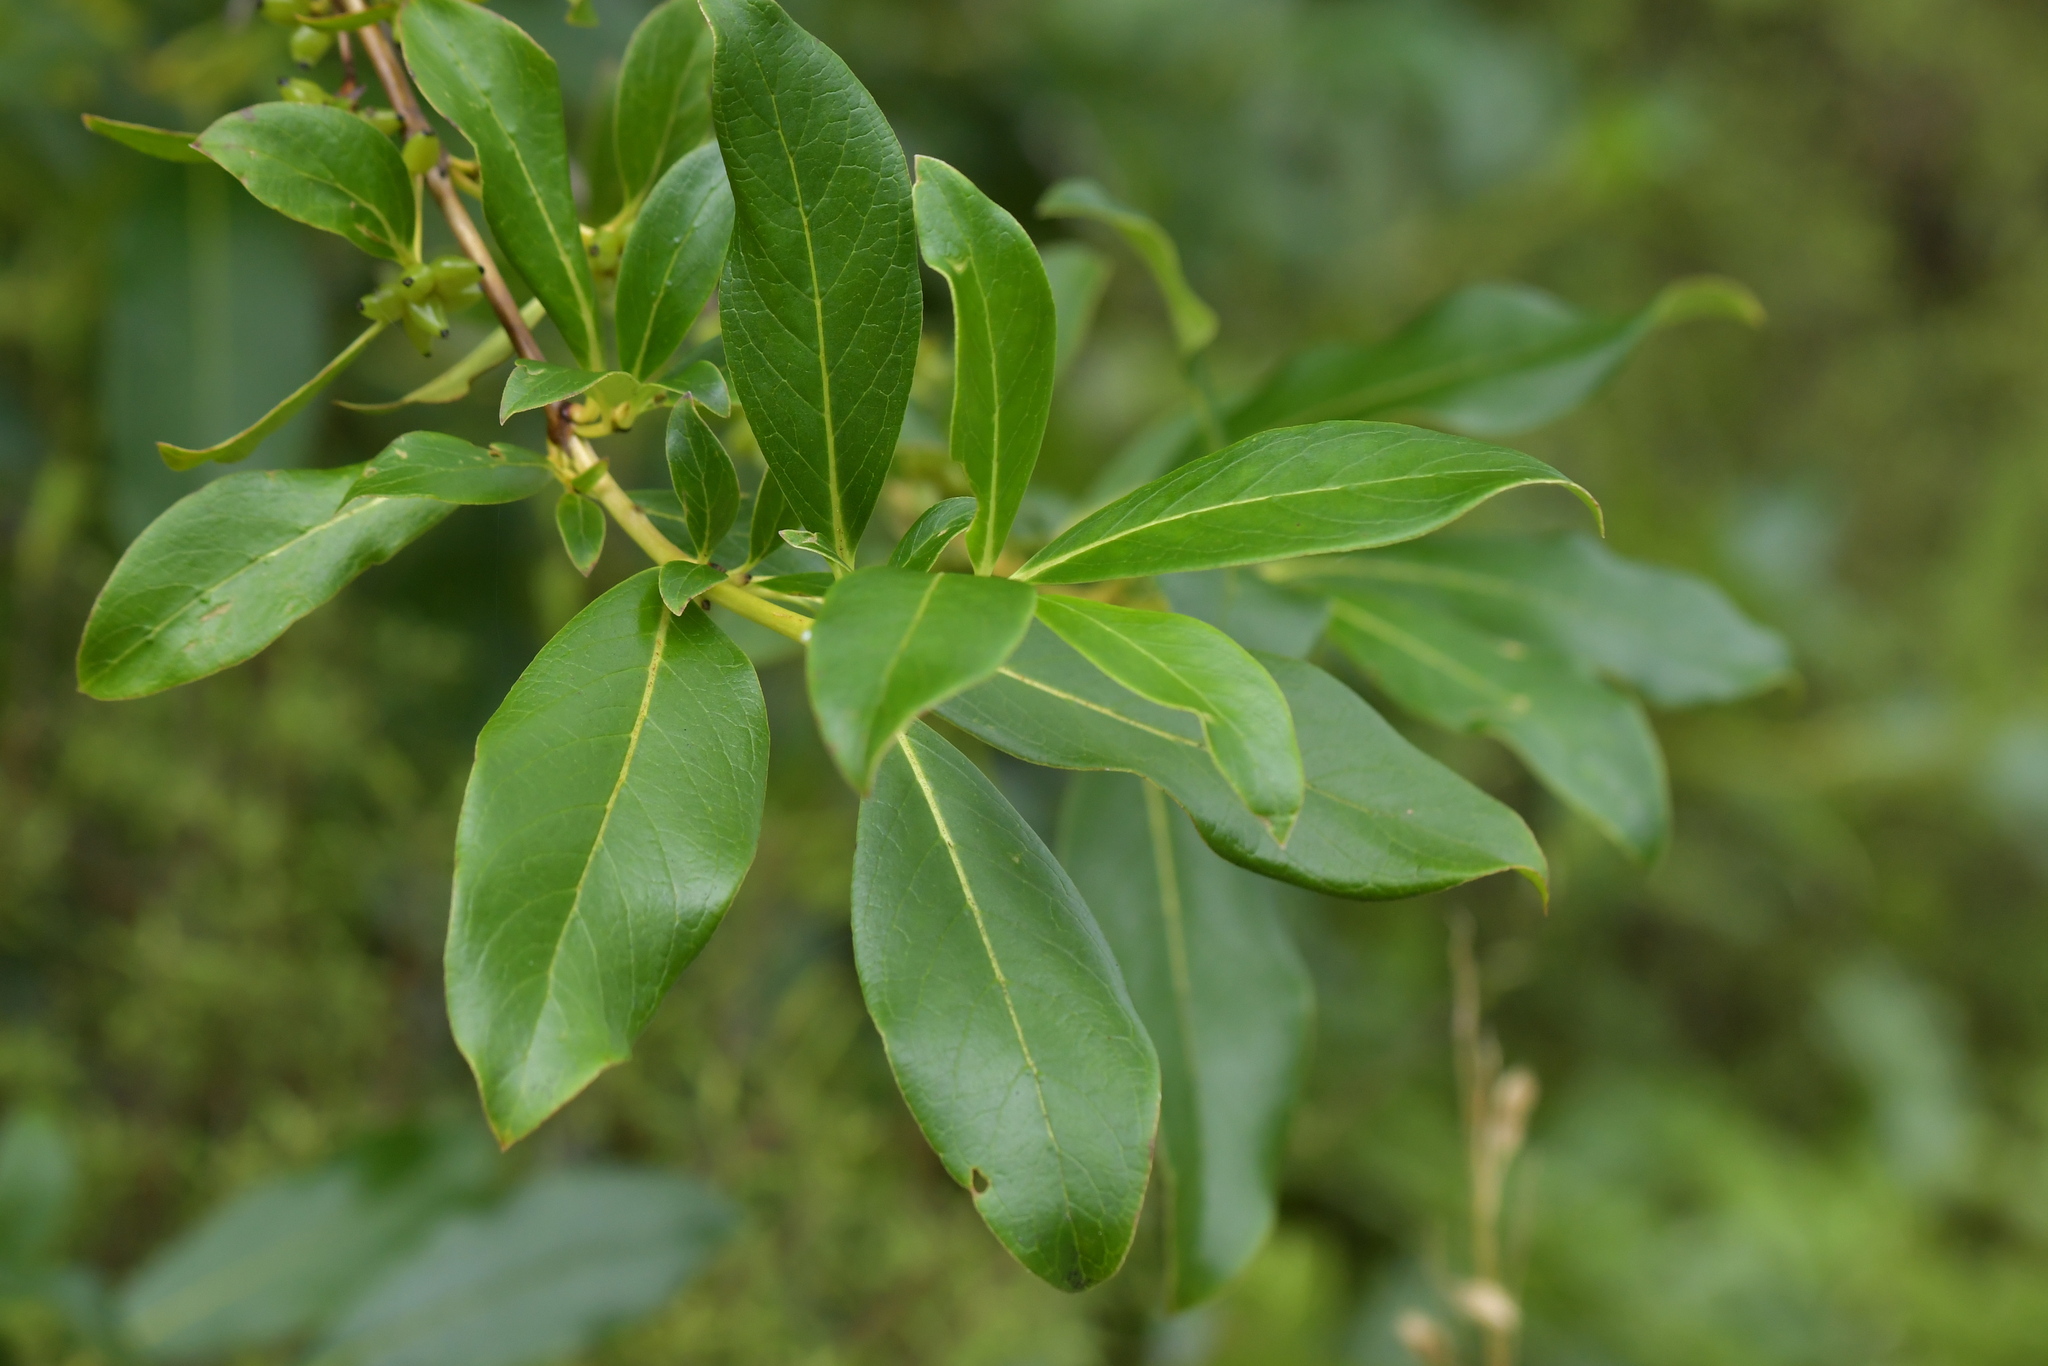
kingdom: Plantae
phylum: Tracheophyta
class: Magnoliopsida
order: Gentianales
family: Rubiaceae
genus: Coprosma
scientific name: Coprosma robusta
